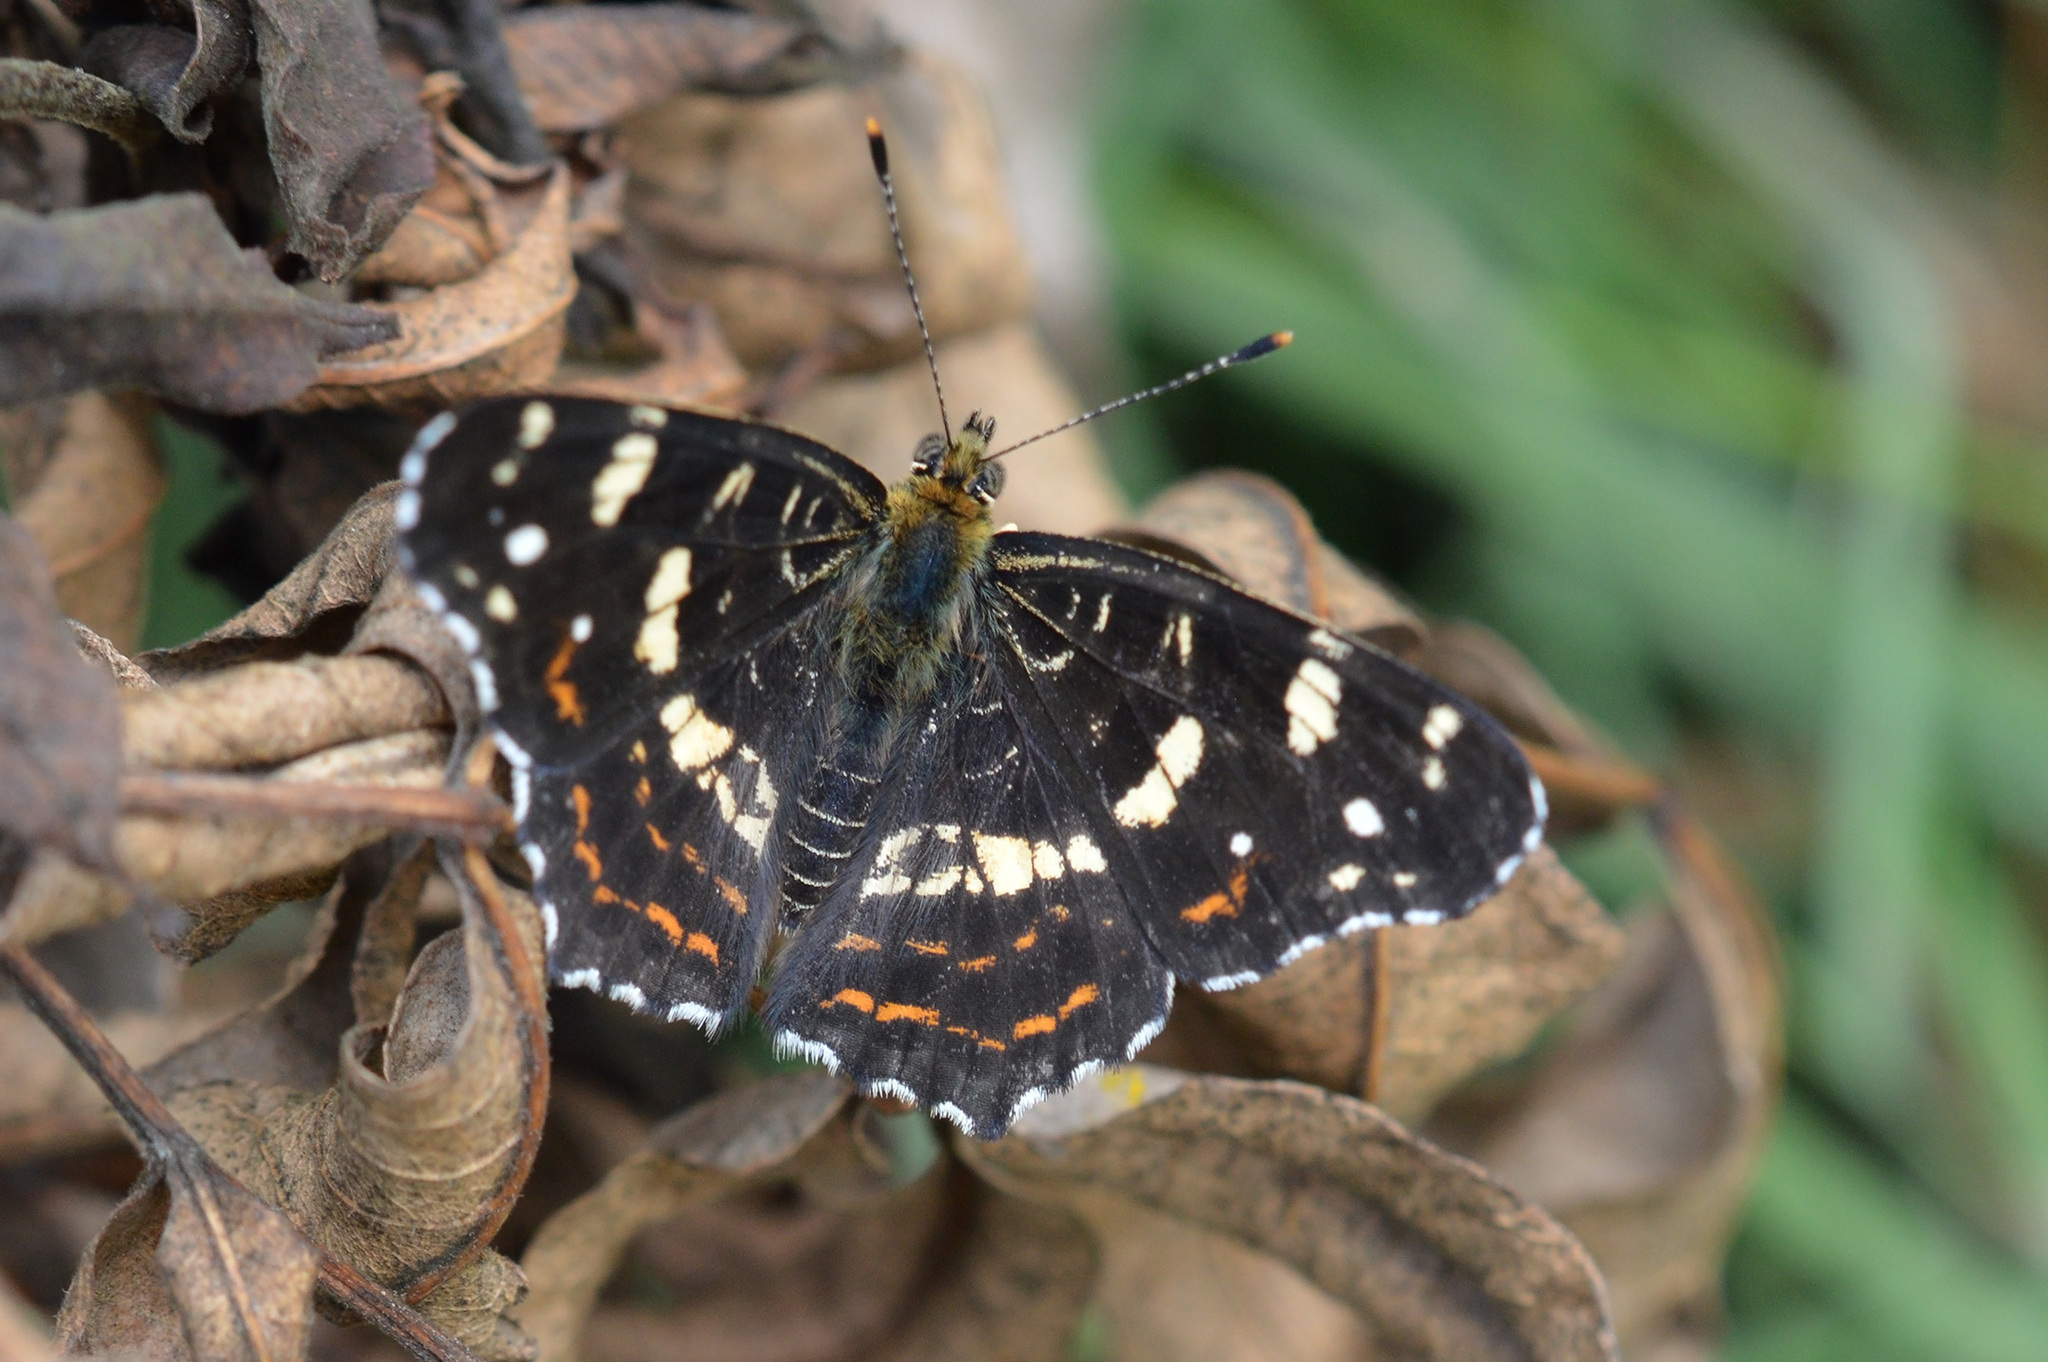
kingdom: Animalia
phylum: Arthropoda
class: Insecta
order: Lepidoptera
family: Nymphalidae
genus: Araschnia
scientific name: Araschnia levana
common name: Map butterfly
